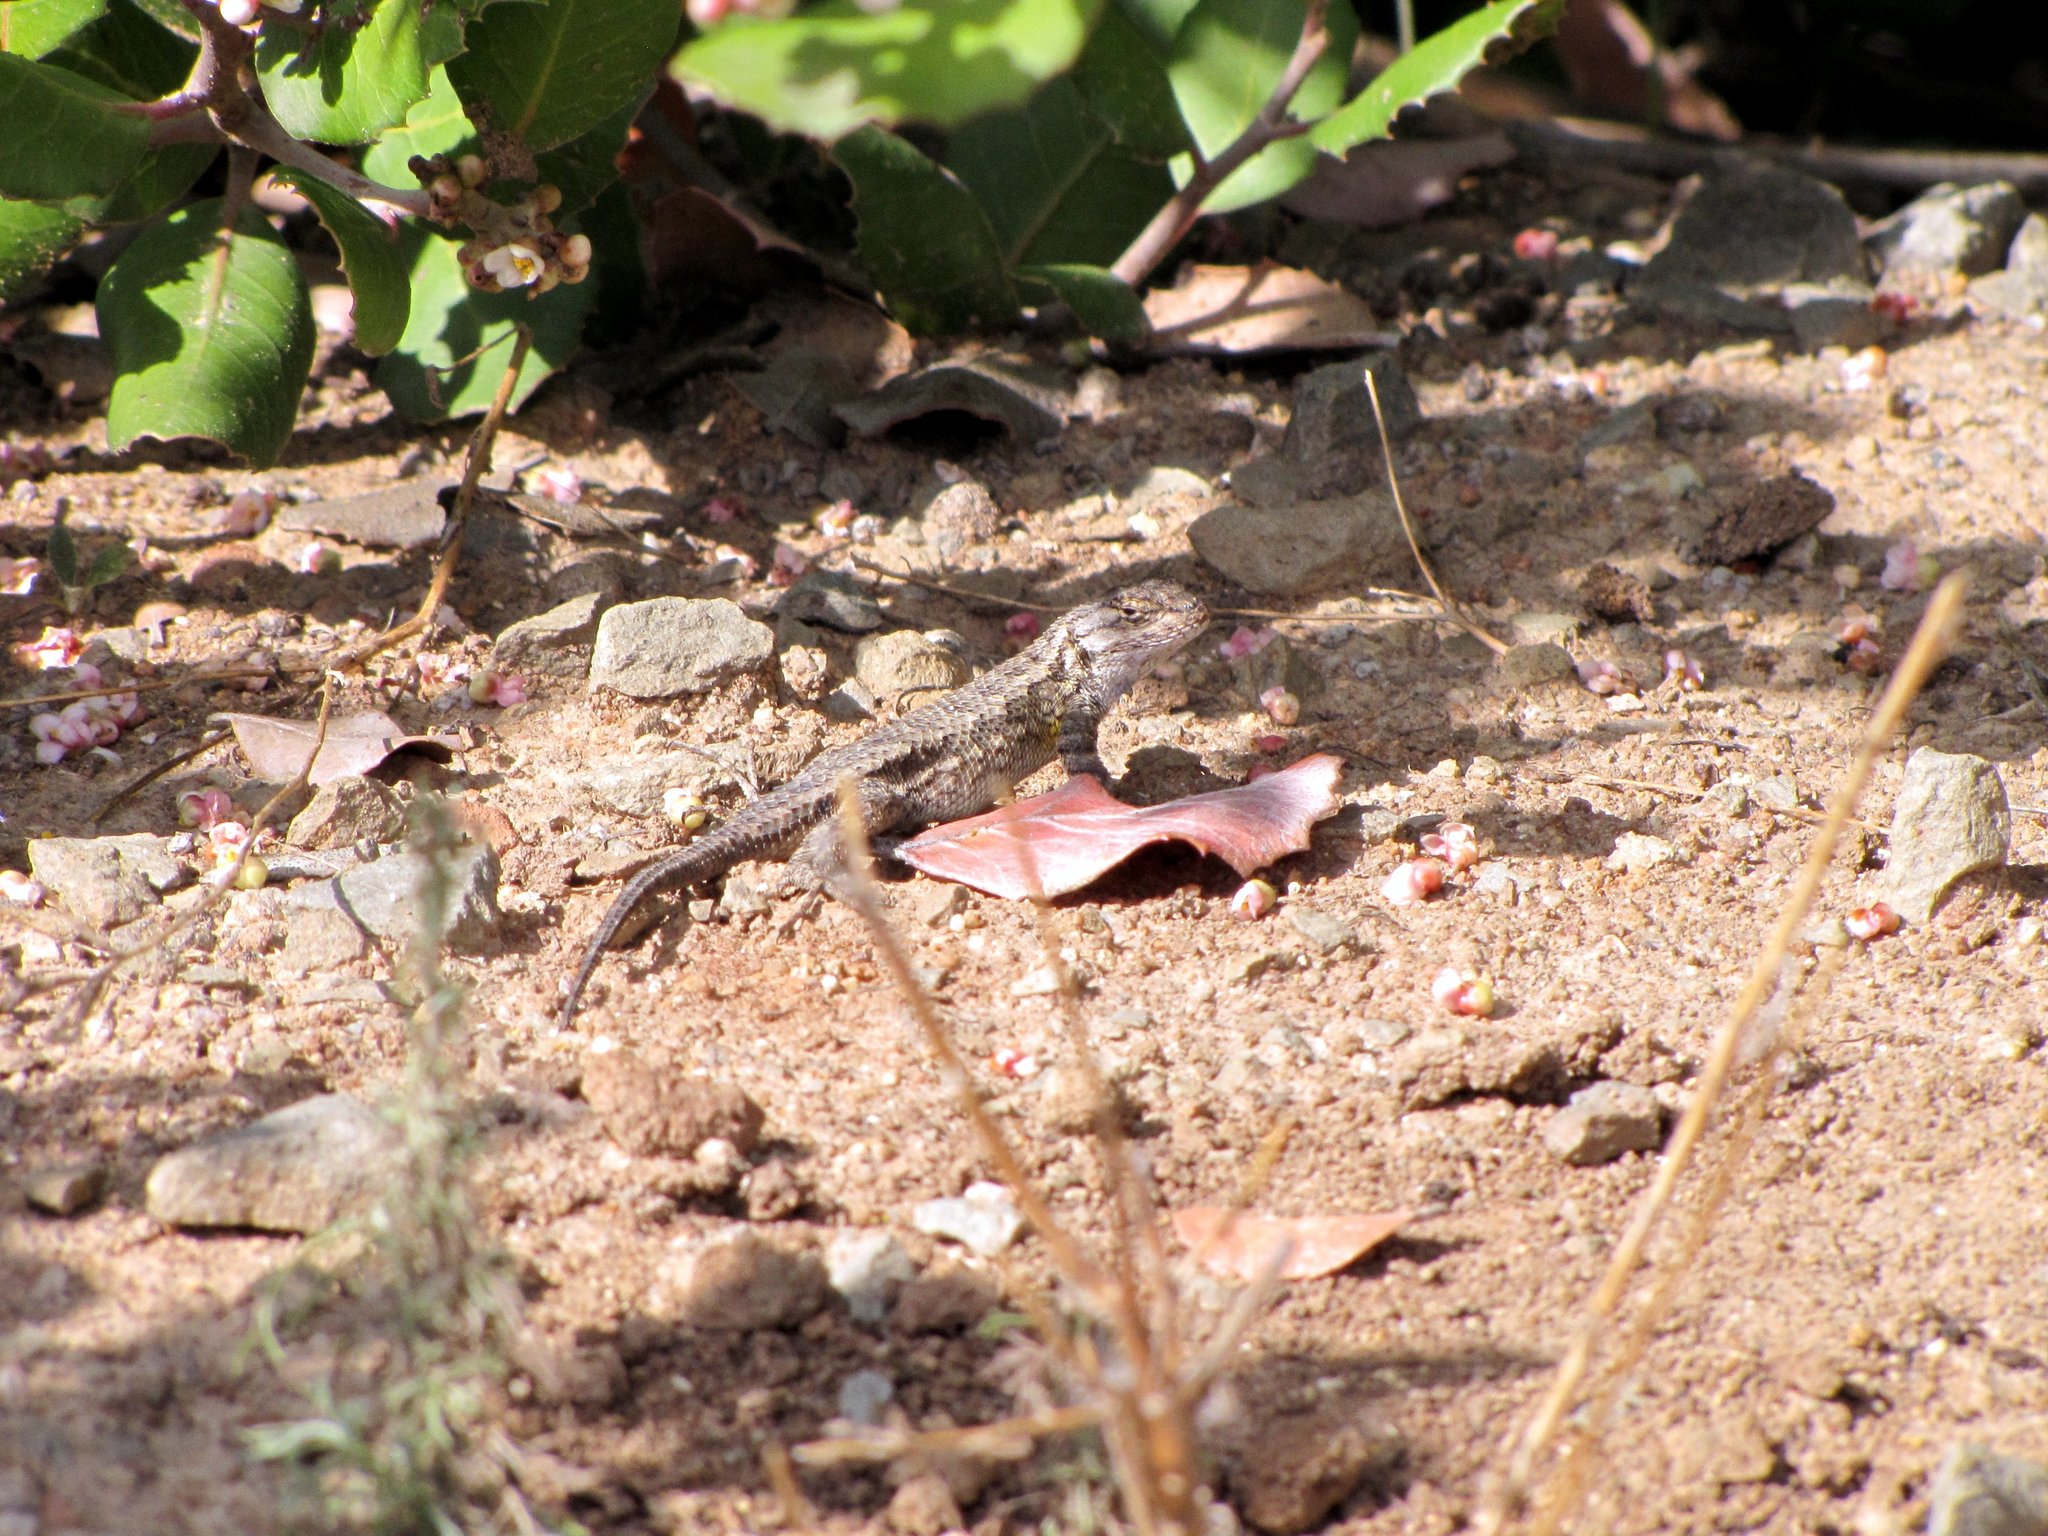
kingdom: Animalia
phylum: Chordata
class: Squamata
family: Phrynosomatidae
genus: Sceloporus
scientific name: Sceloporus occidentalis
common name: Western fence lizard
